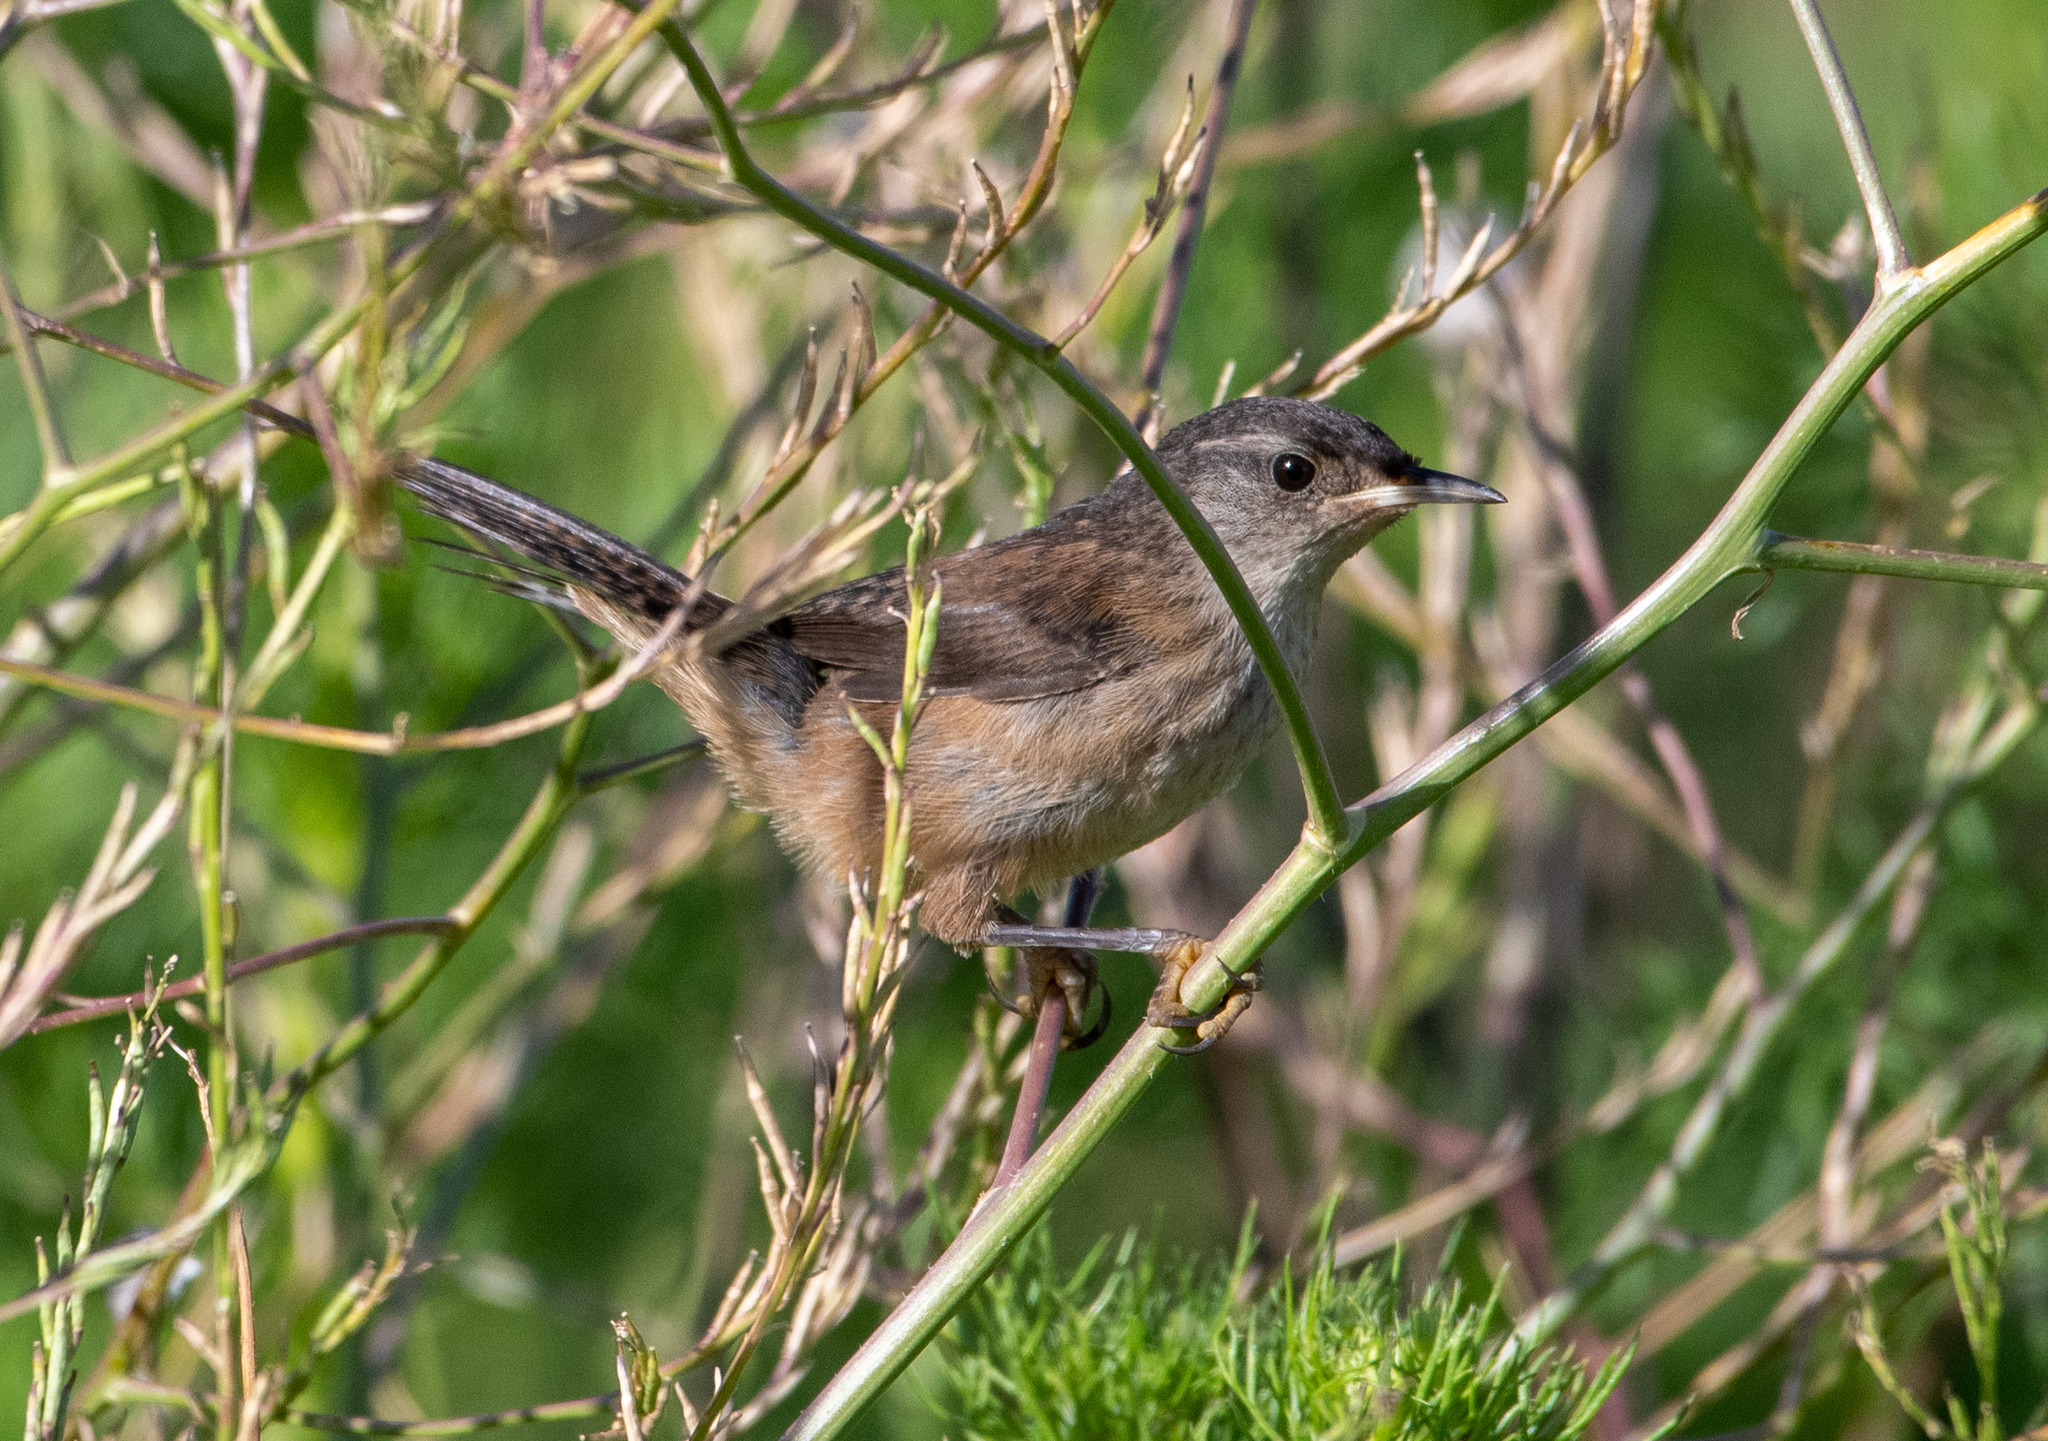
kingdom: Animalia
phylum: Chordata
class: Aves
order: Passeriformes
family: Troglodytidae
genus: Cistothorus
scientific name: Cistothorus palustris
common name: Marsh wren
